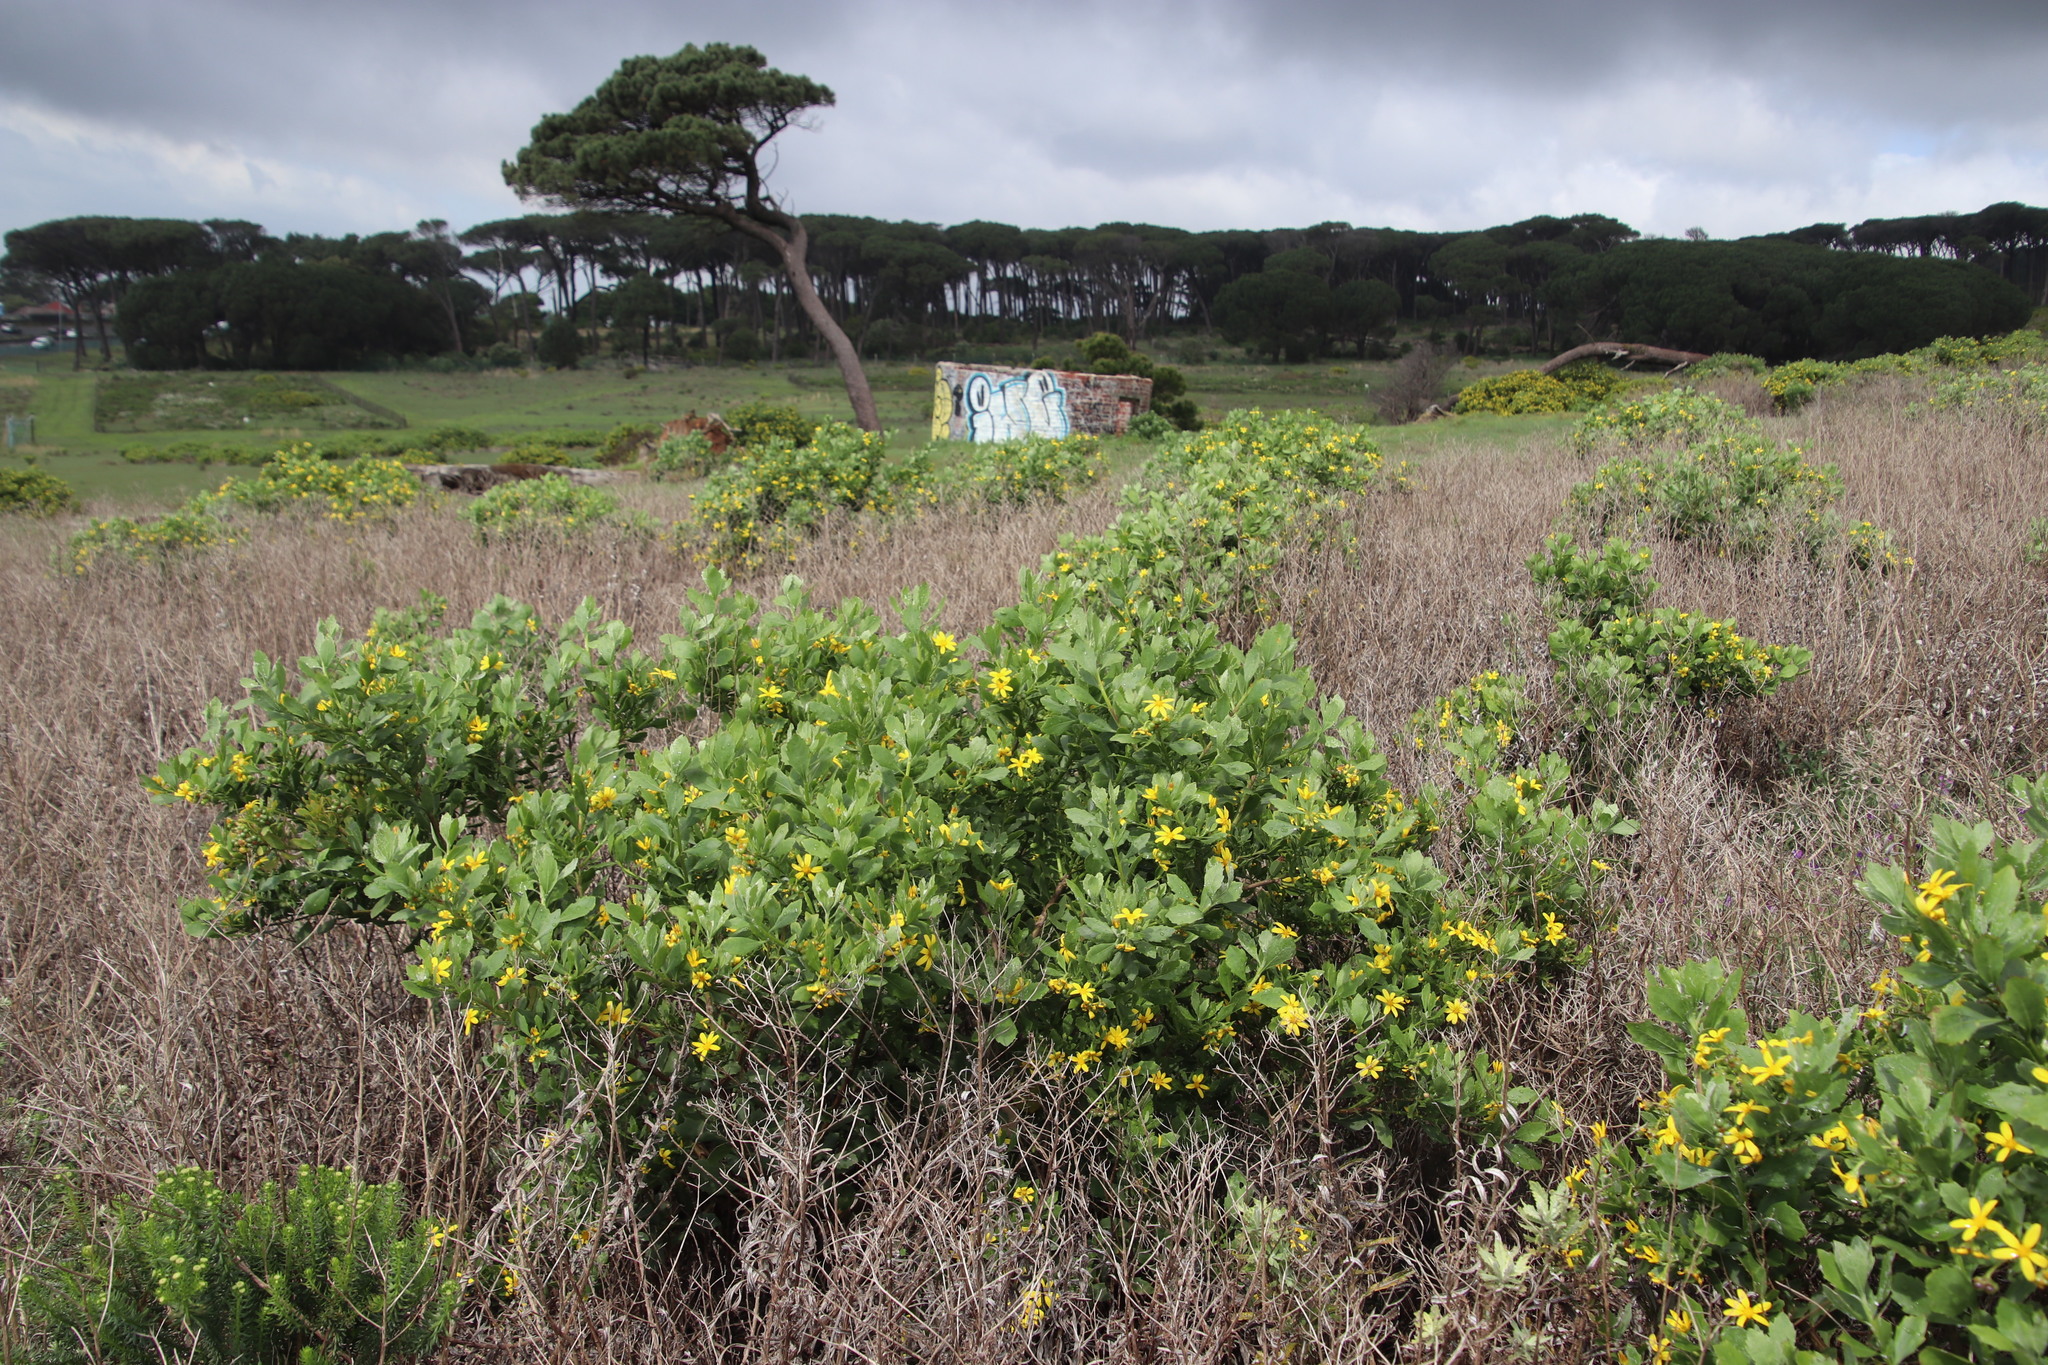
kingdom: Plantae
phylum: Tracheophyta
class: Magnoliopsida
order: Asterales
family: Asteraceae
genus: Osteospermum
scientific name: Osteospermum moniliferum
